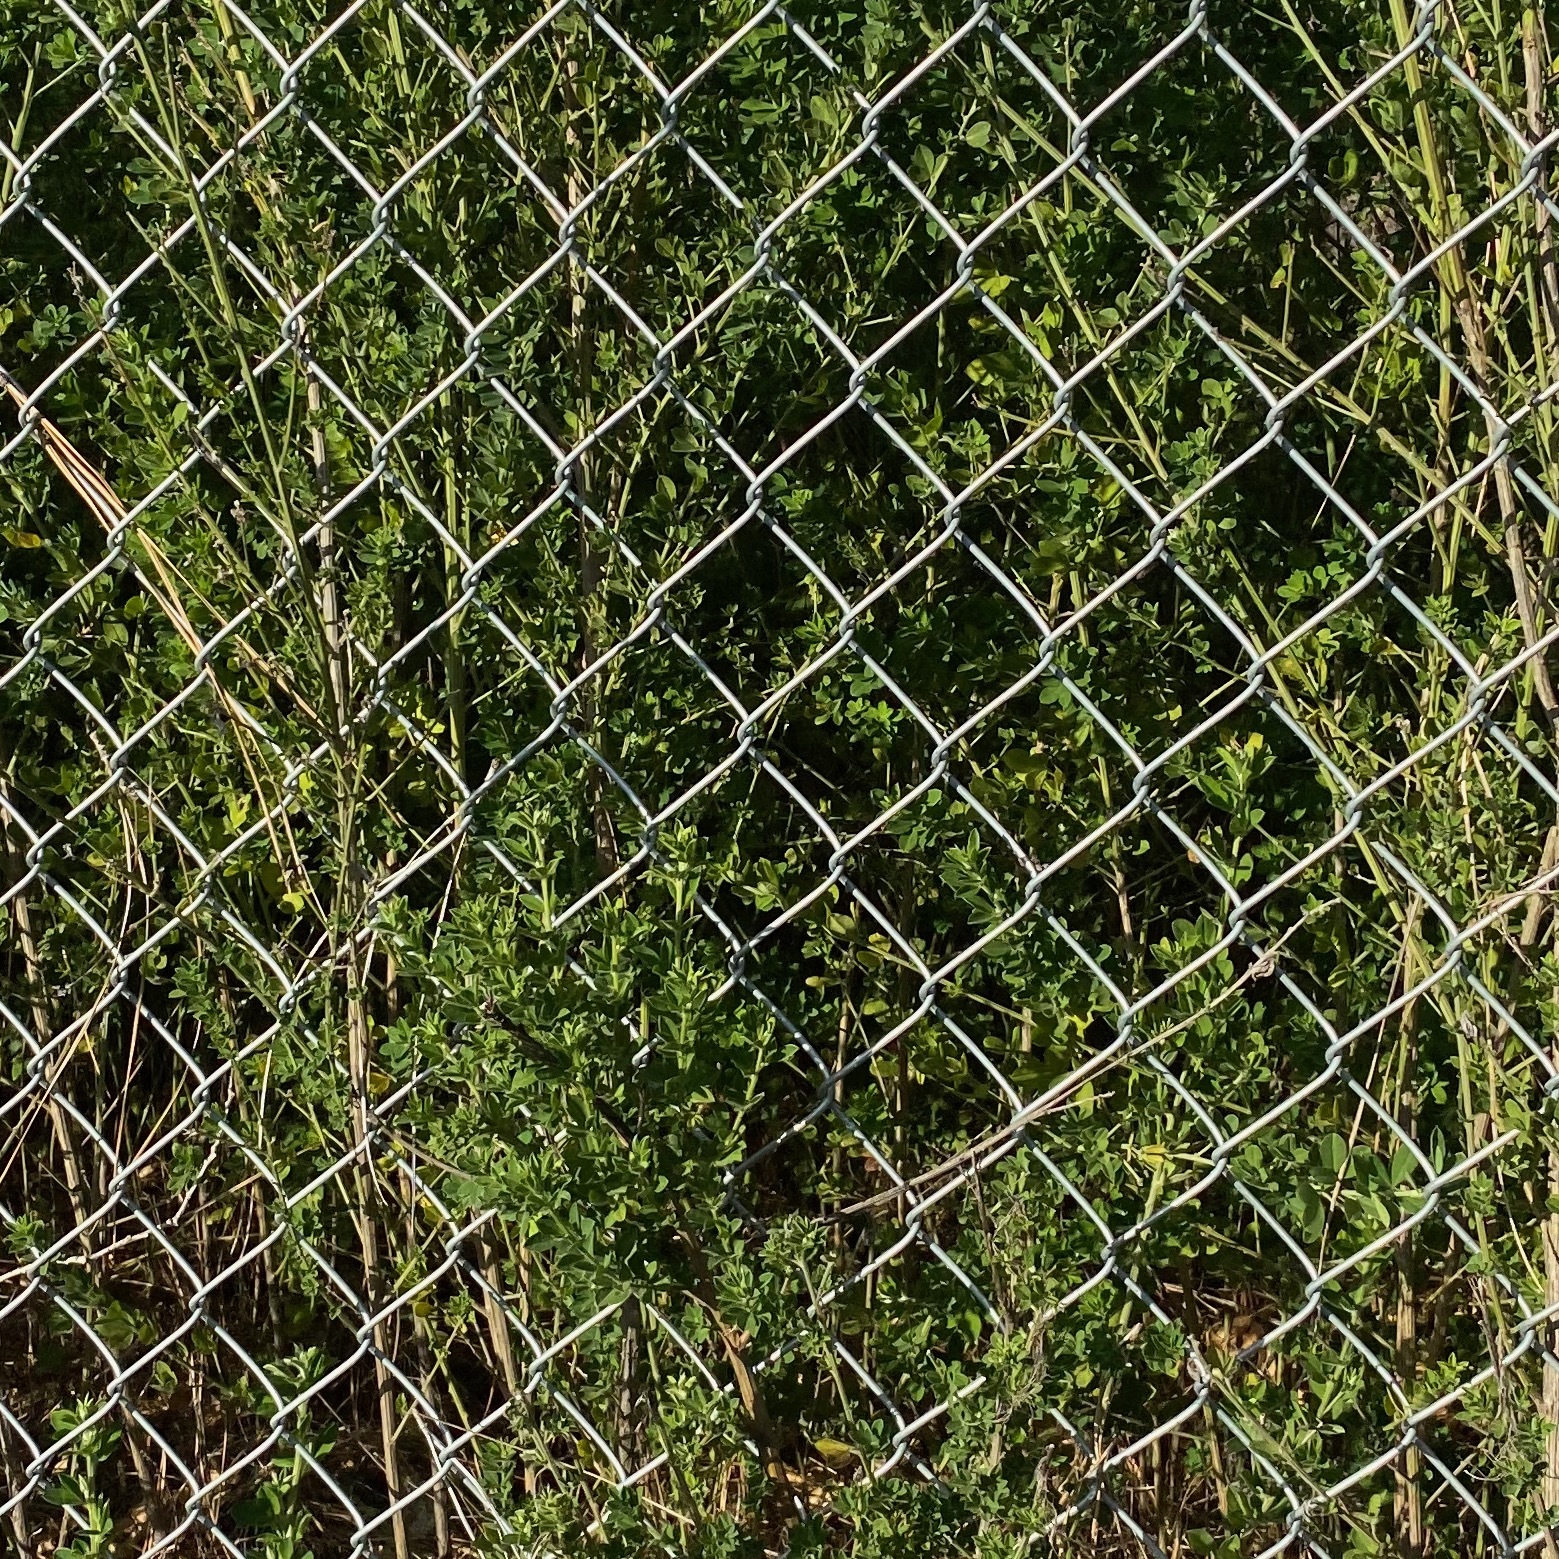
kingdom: Plantae
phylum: Tracheophyta
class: Magnoliopsida
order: Fabales
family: Fabaceae
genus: Genista
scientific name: Genista monspessulana
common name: Montpellier broom
